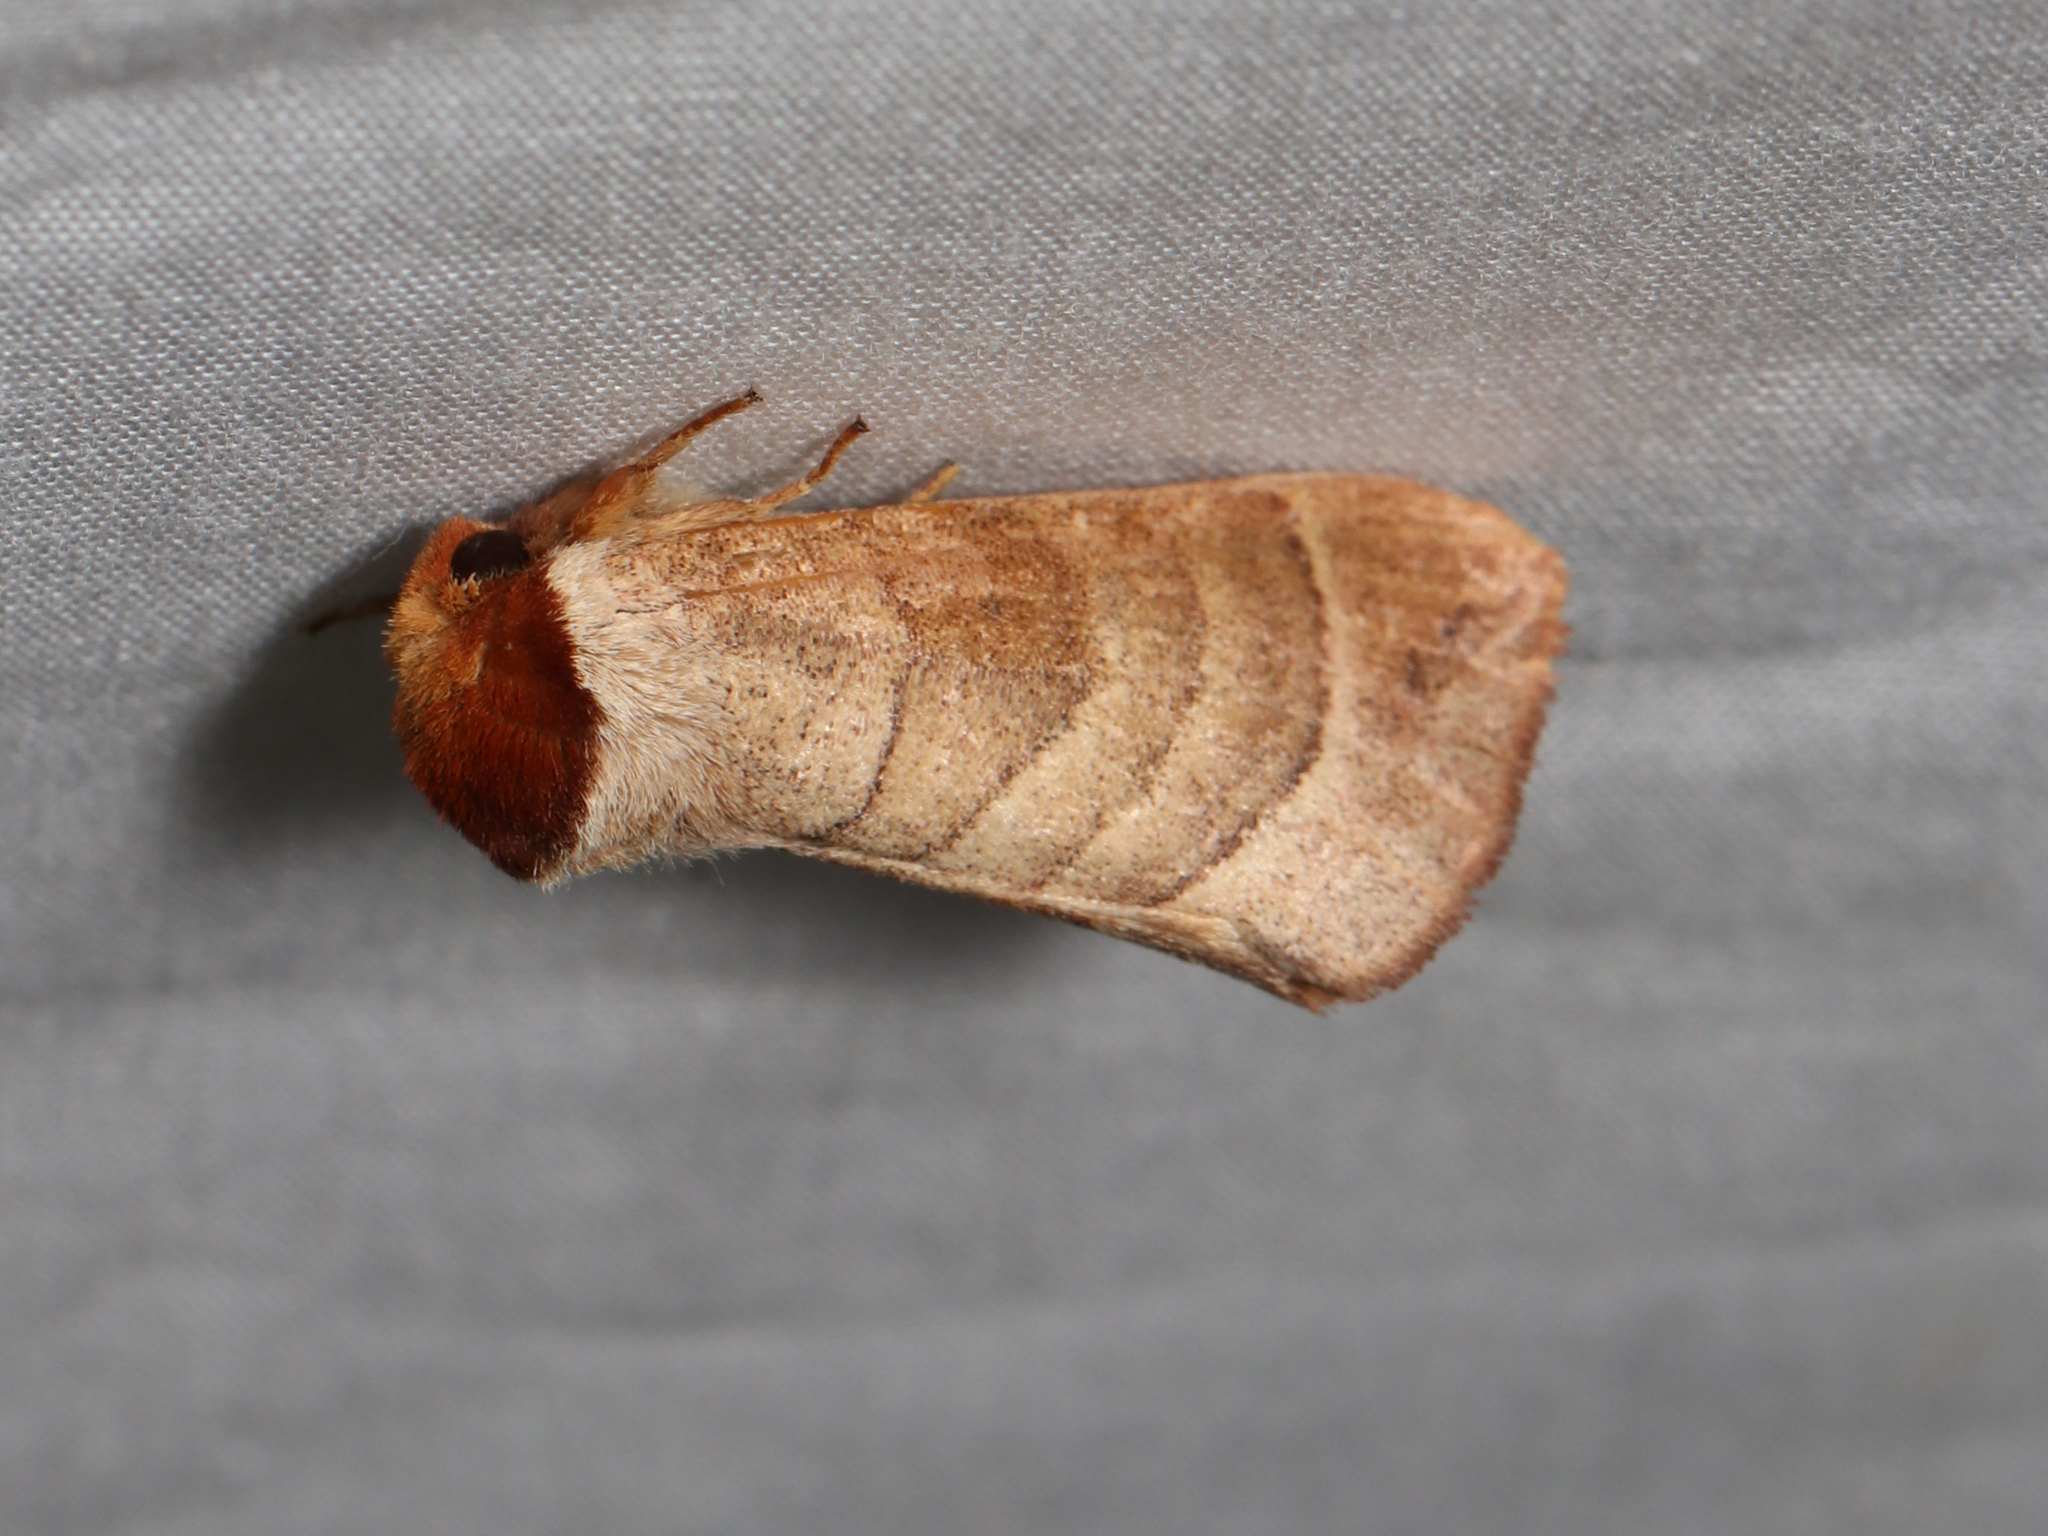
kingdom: Animalia
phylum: Arthropoda
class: Insecta
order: Lepidoptera
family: Notodontidae
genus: Datana
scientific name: Datana integerrima
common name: Walnut caterpillar
